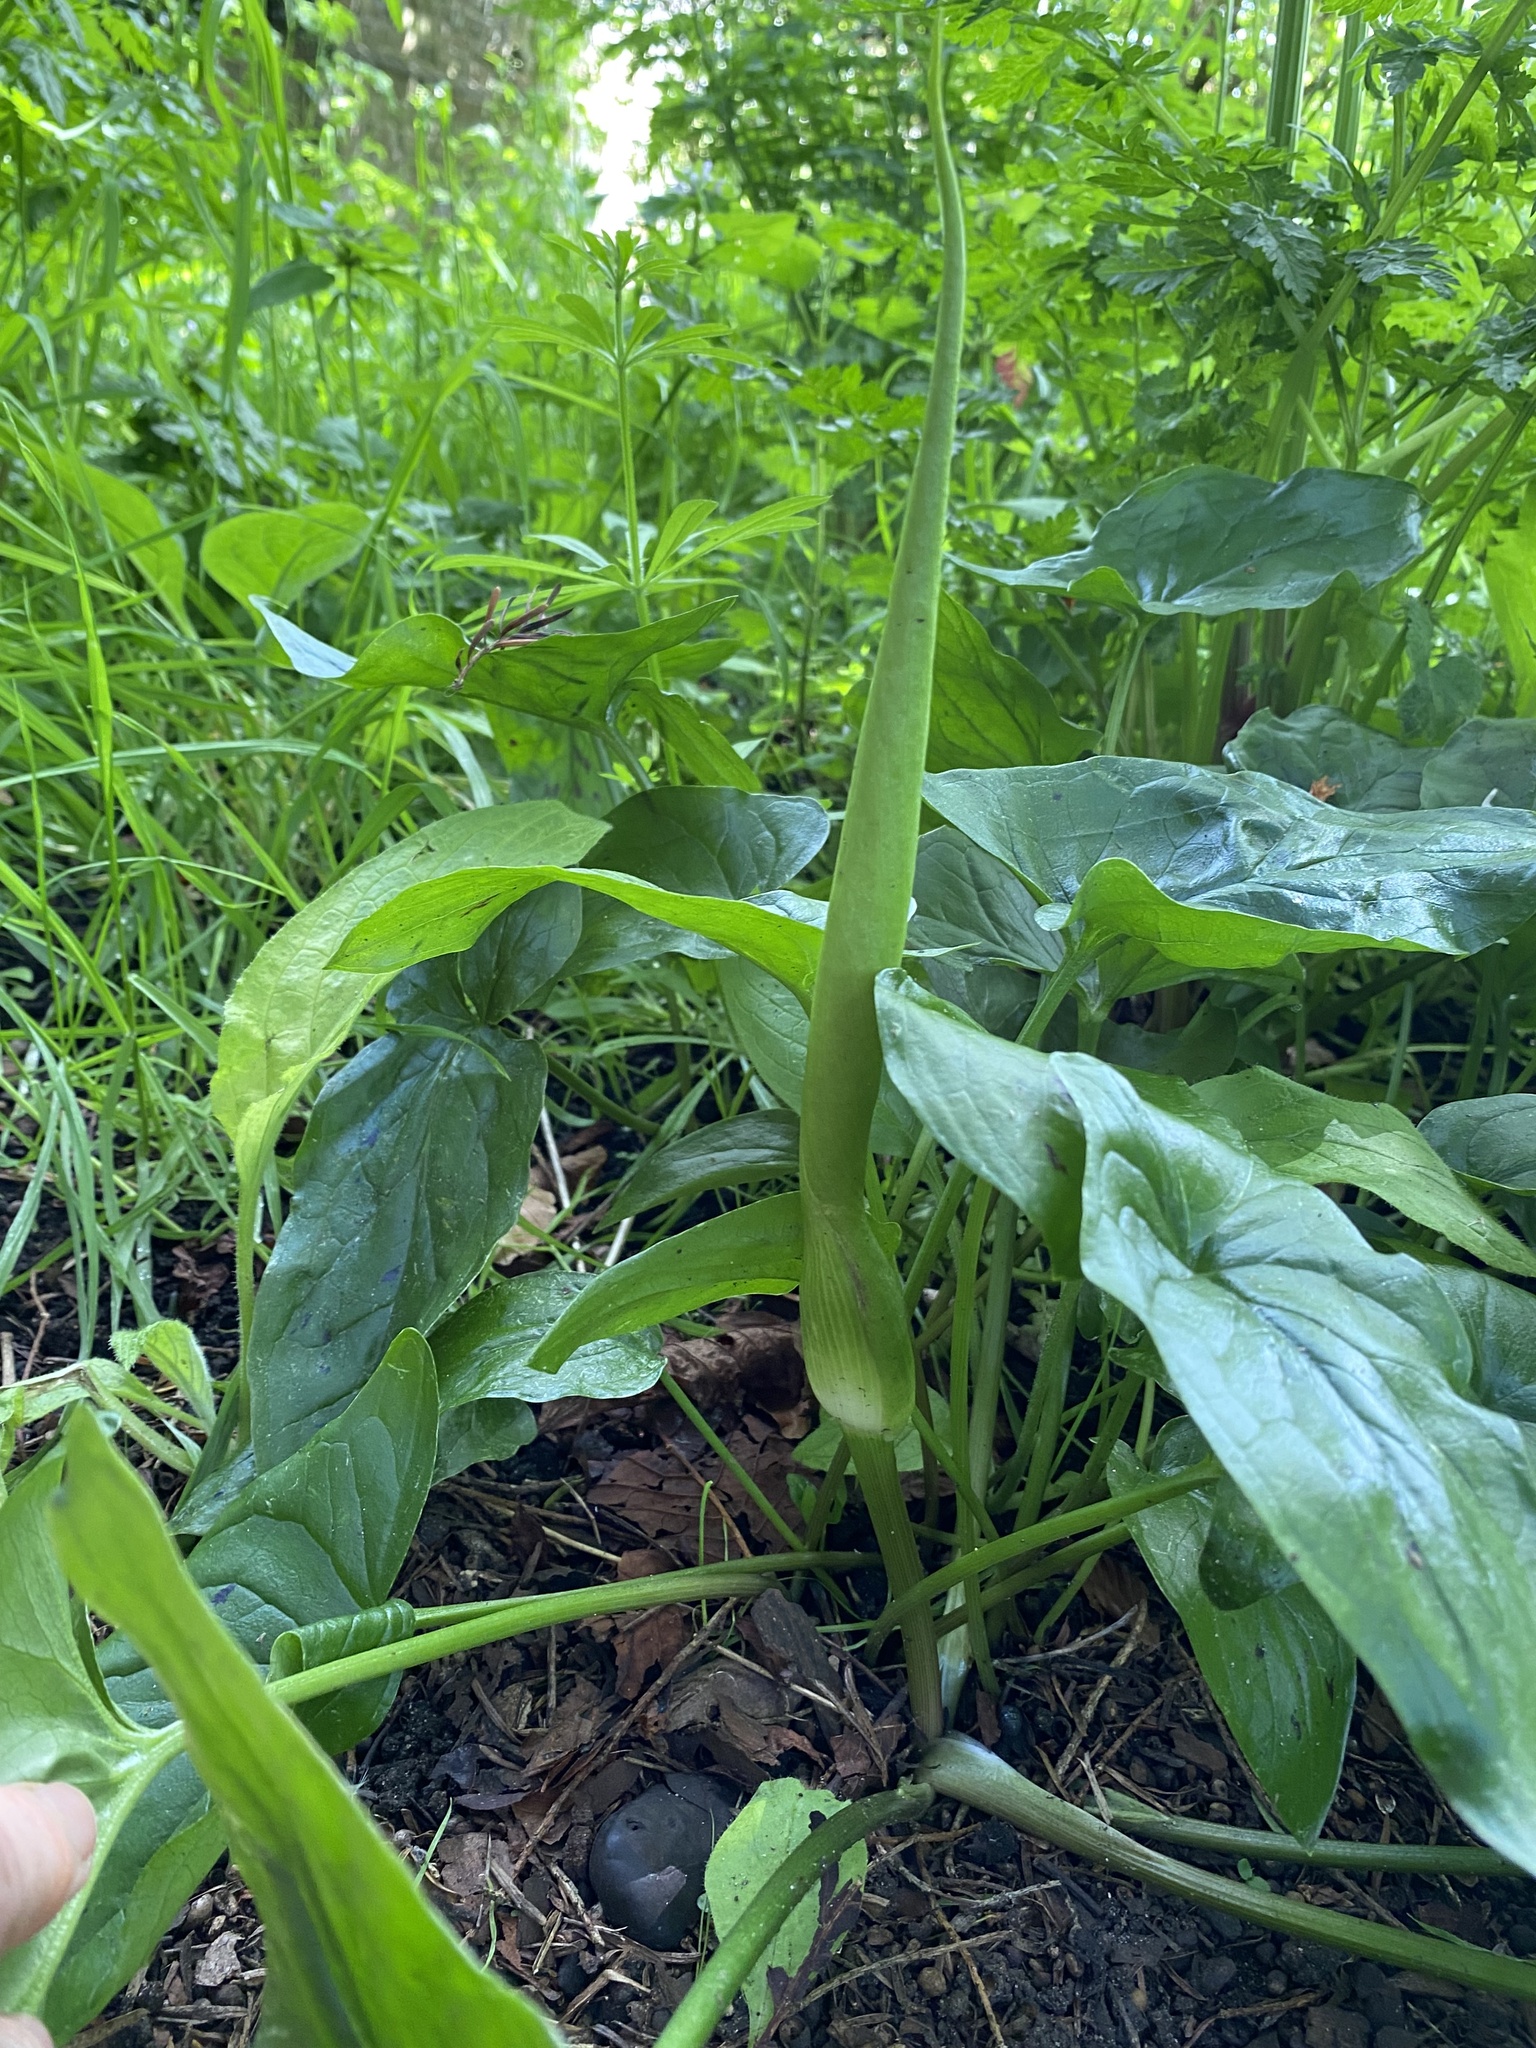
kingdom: Plantae
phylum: Tracheophyta
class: Liliopsida
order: Alismatales
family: Araceae
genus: Arum
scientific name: Arum maculatum
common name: Lords-and-ladies
